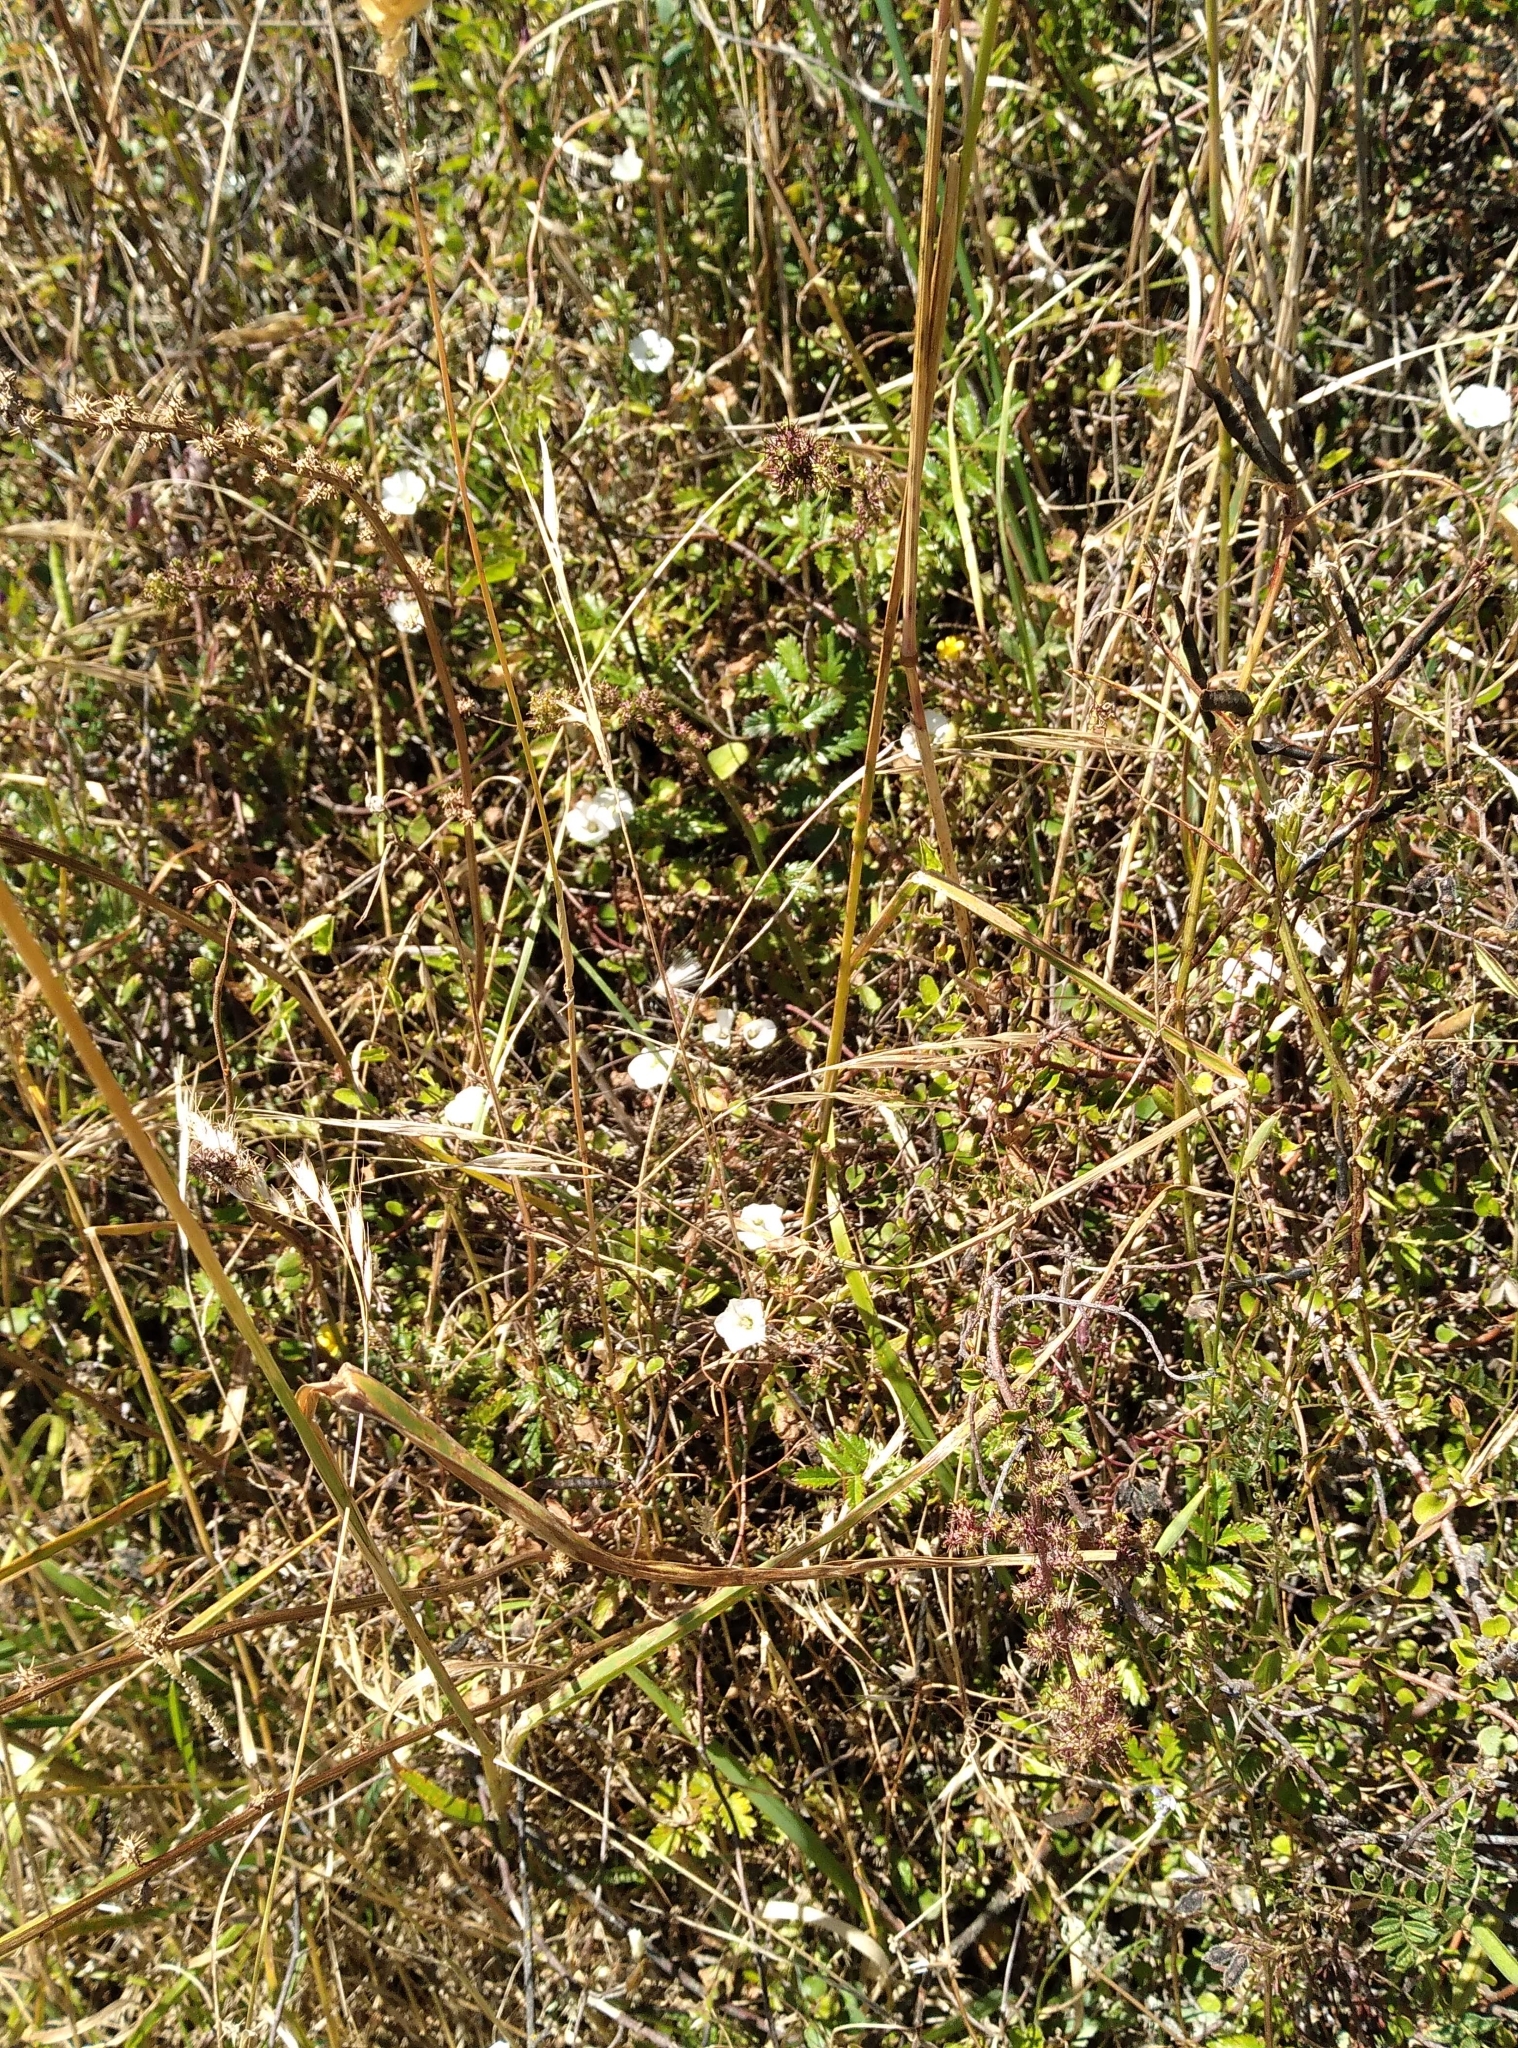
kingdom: Plantae
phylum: Tracheophyta
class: Magnoliopsida
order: Solanales
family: Convolvulaceae
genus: Convolvulus
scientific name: Convolvulus waitaha
